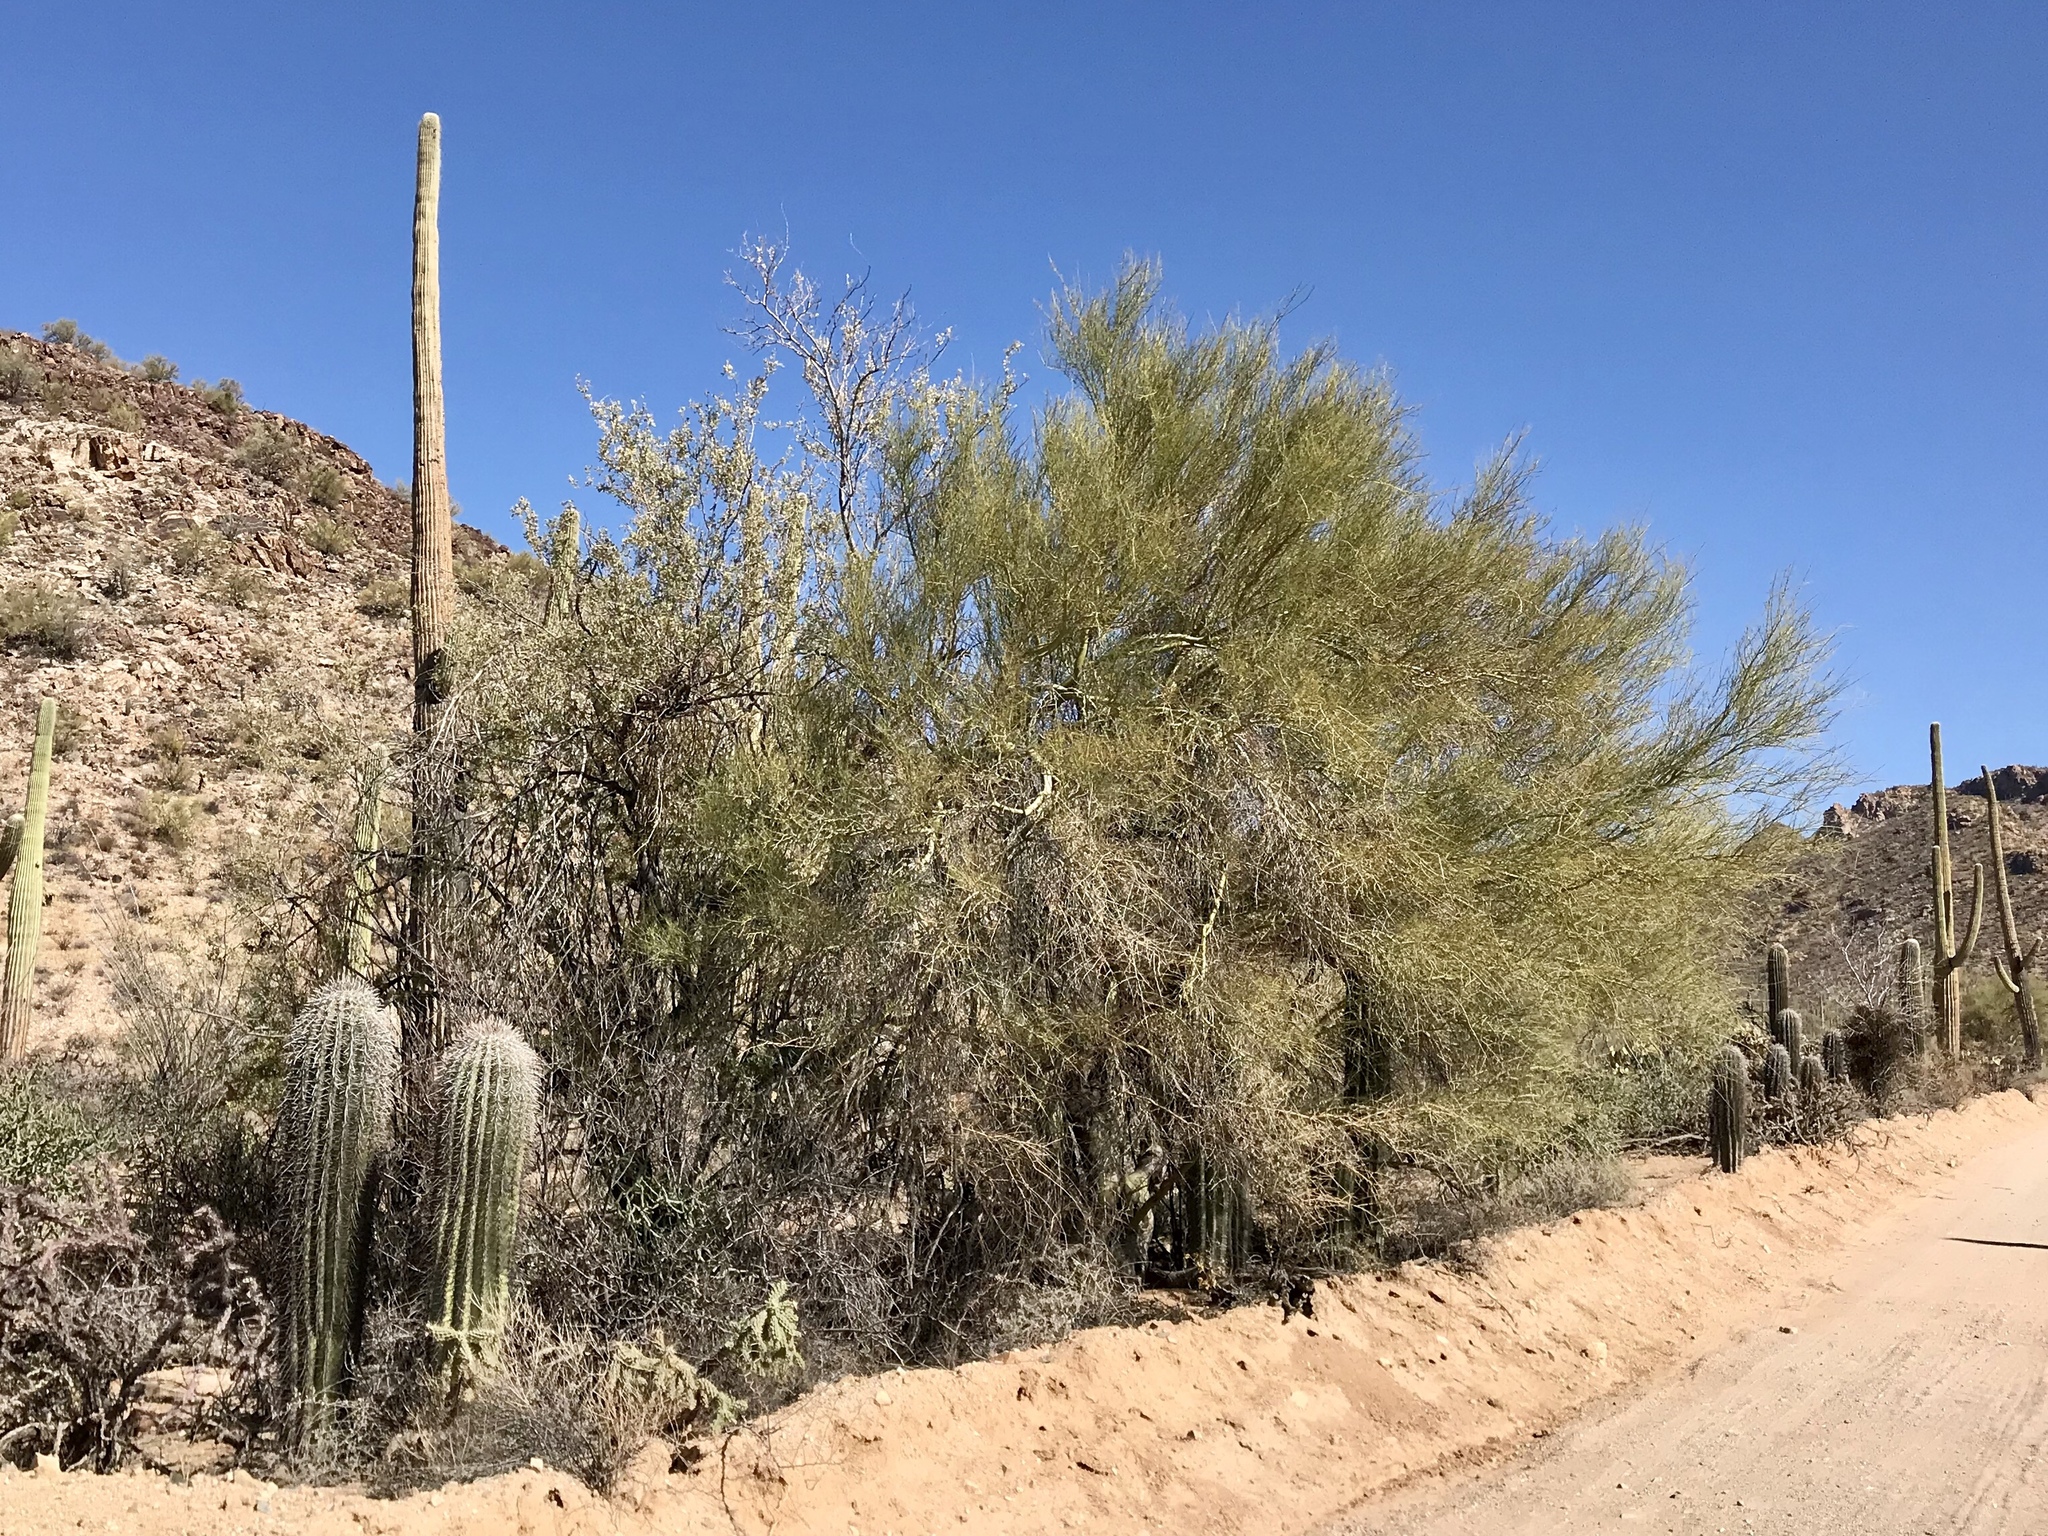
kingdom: Plantae
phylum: Tracheophyta
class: Magnoliopsida
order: Caryophyllales
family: Cactaceae
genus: Carnegiea
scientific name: Carnegiea gigantea
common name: Saguaro
